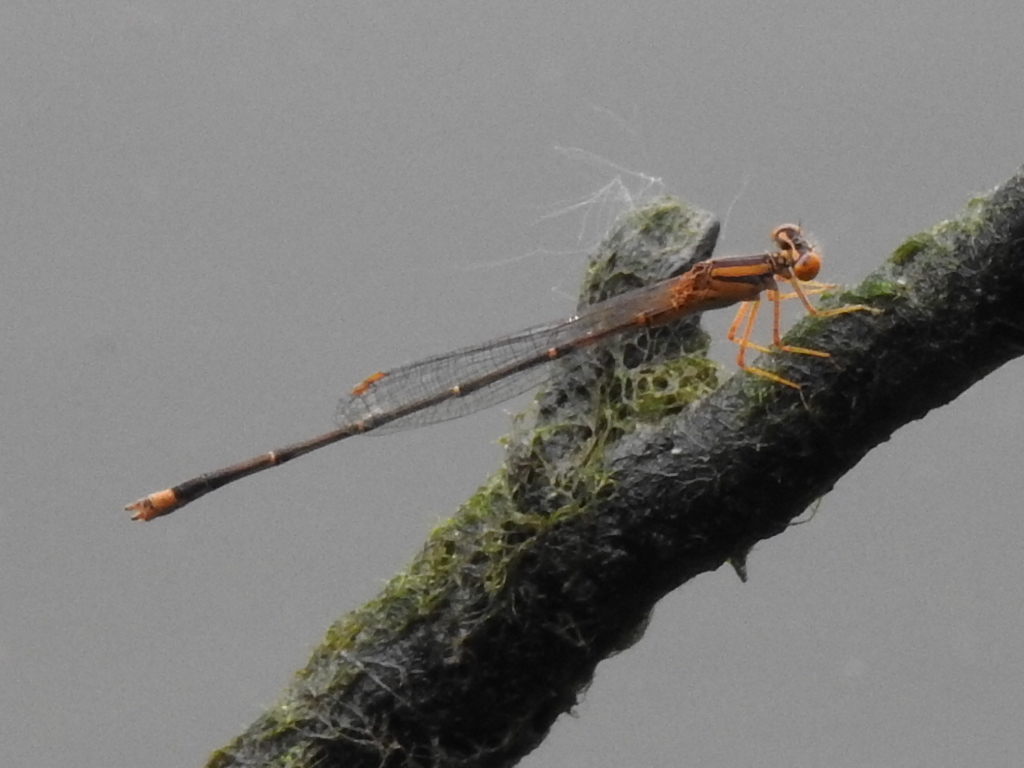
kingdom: Animalia
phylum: Arthropoda
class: Insecta
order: Odonata
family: Coenagrionidae
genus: Enallagma
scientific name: Enallagma signatum
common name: Orange bluet
